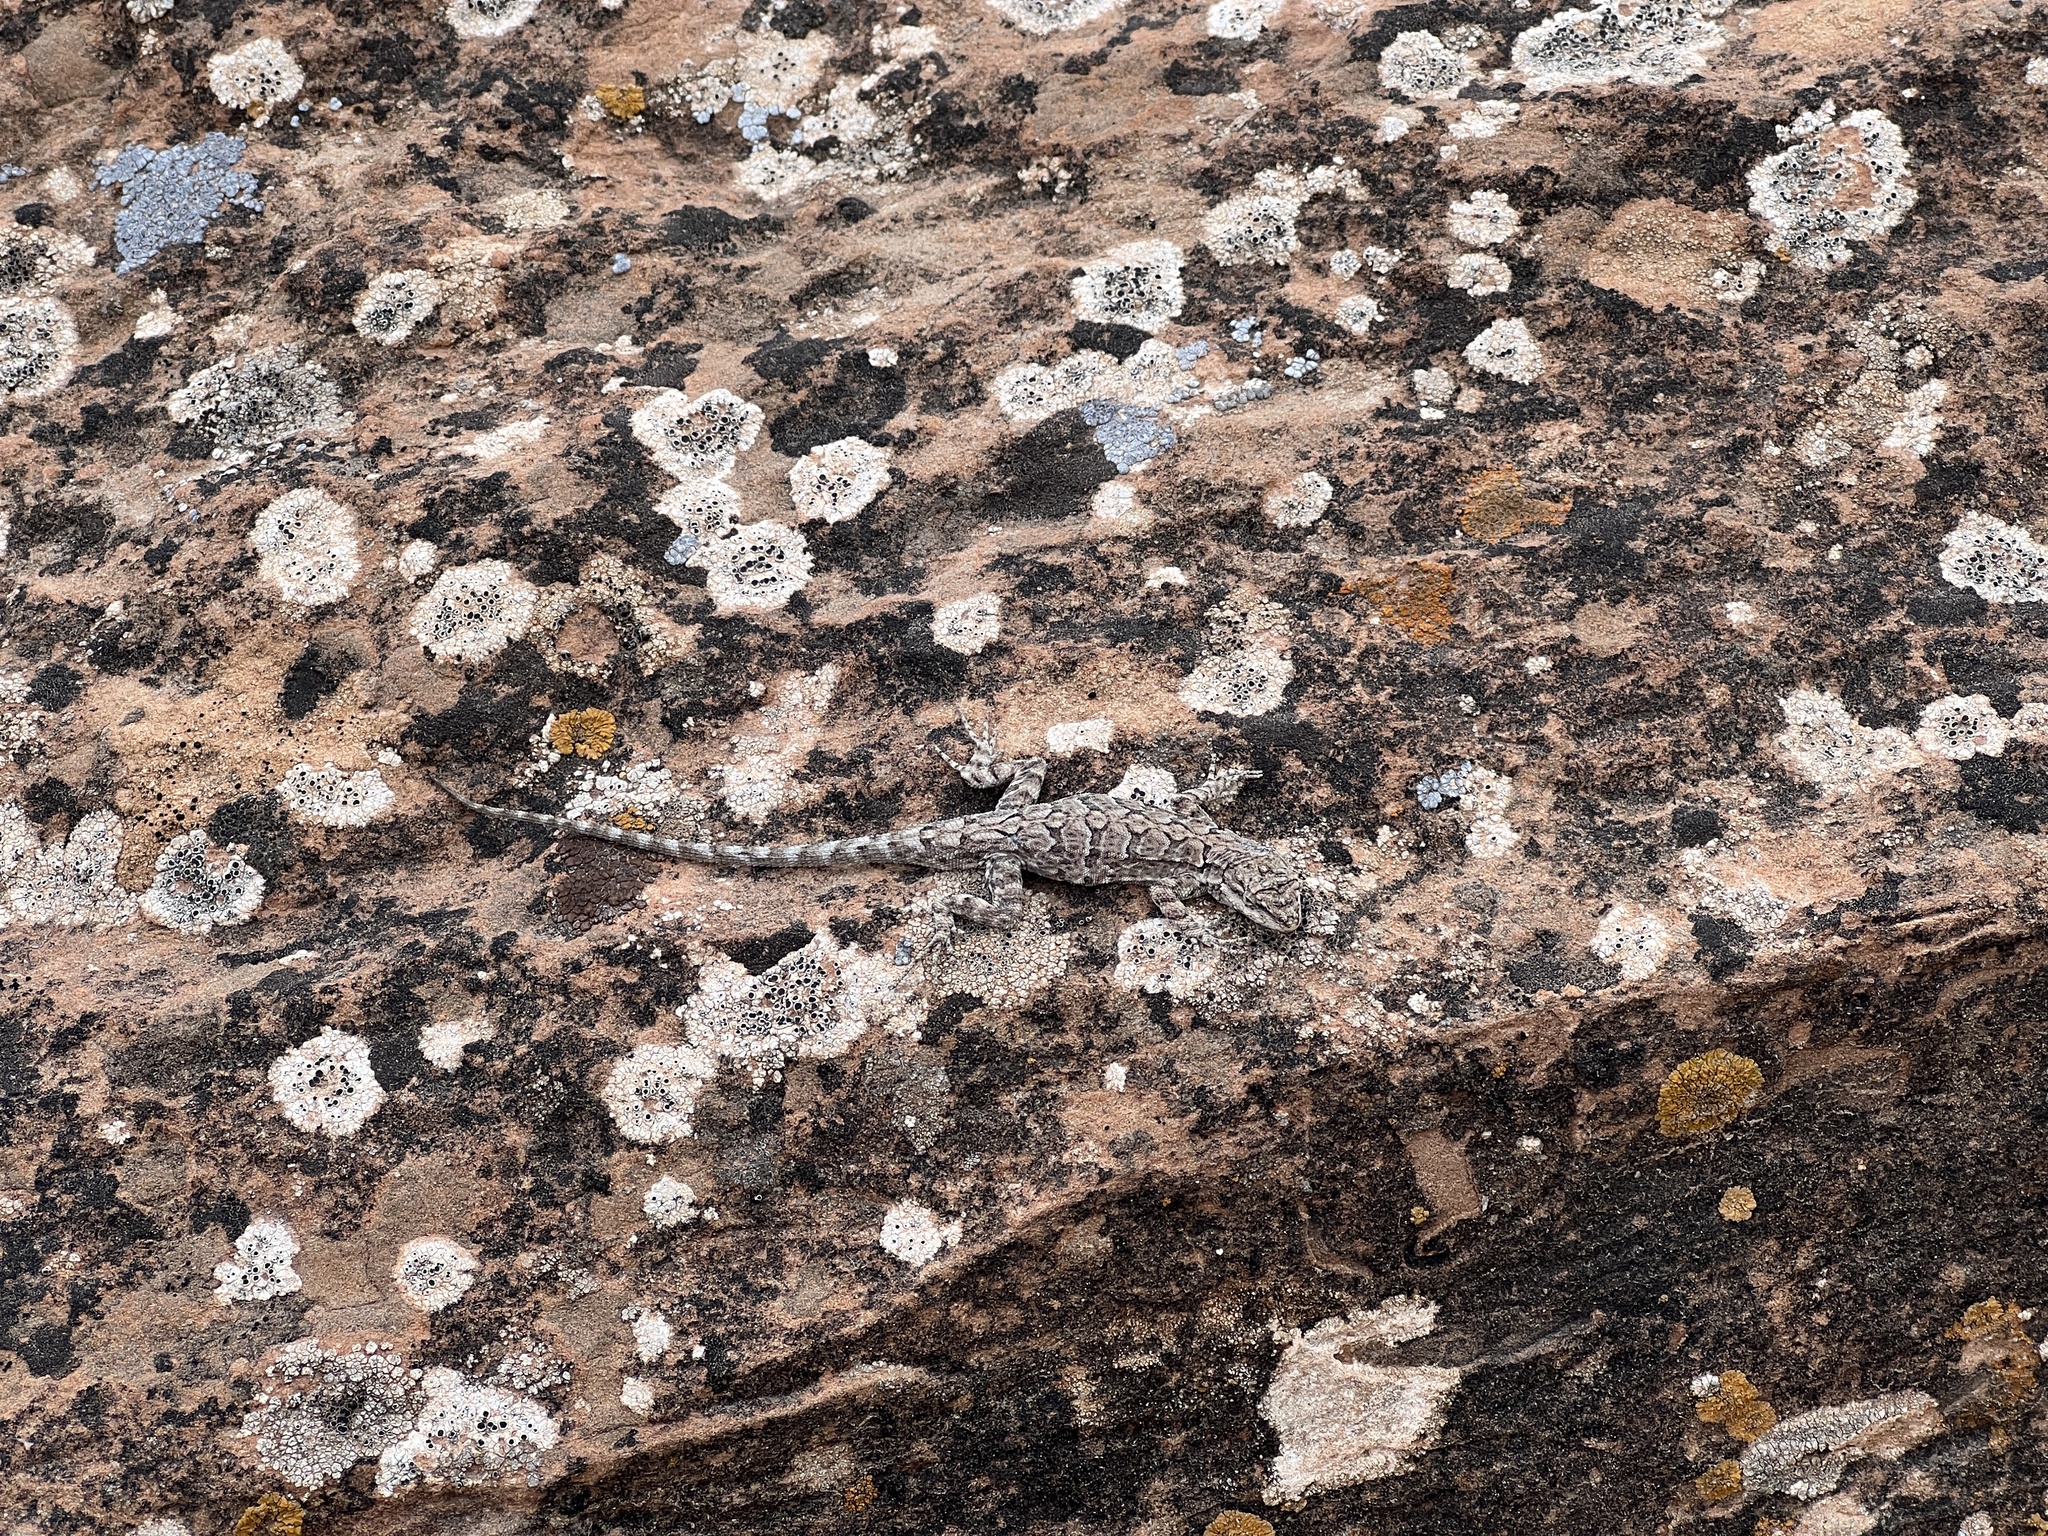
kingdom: Animalia
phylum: Chordata
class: Squamata
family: Phrynosomatidae
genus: Urosaurus
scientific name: Urosaurus ornatus
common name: Ornate tree lizard
